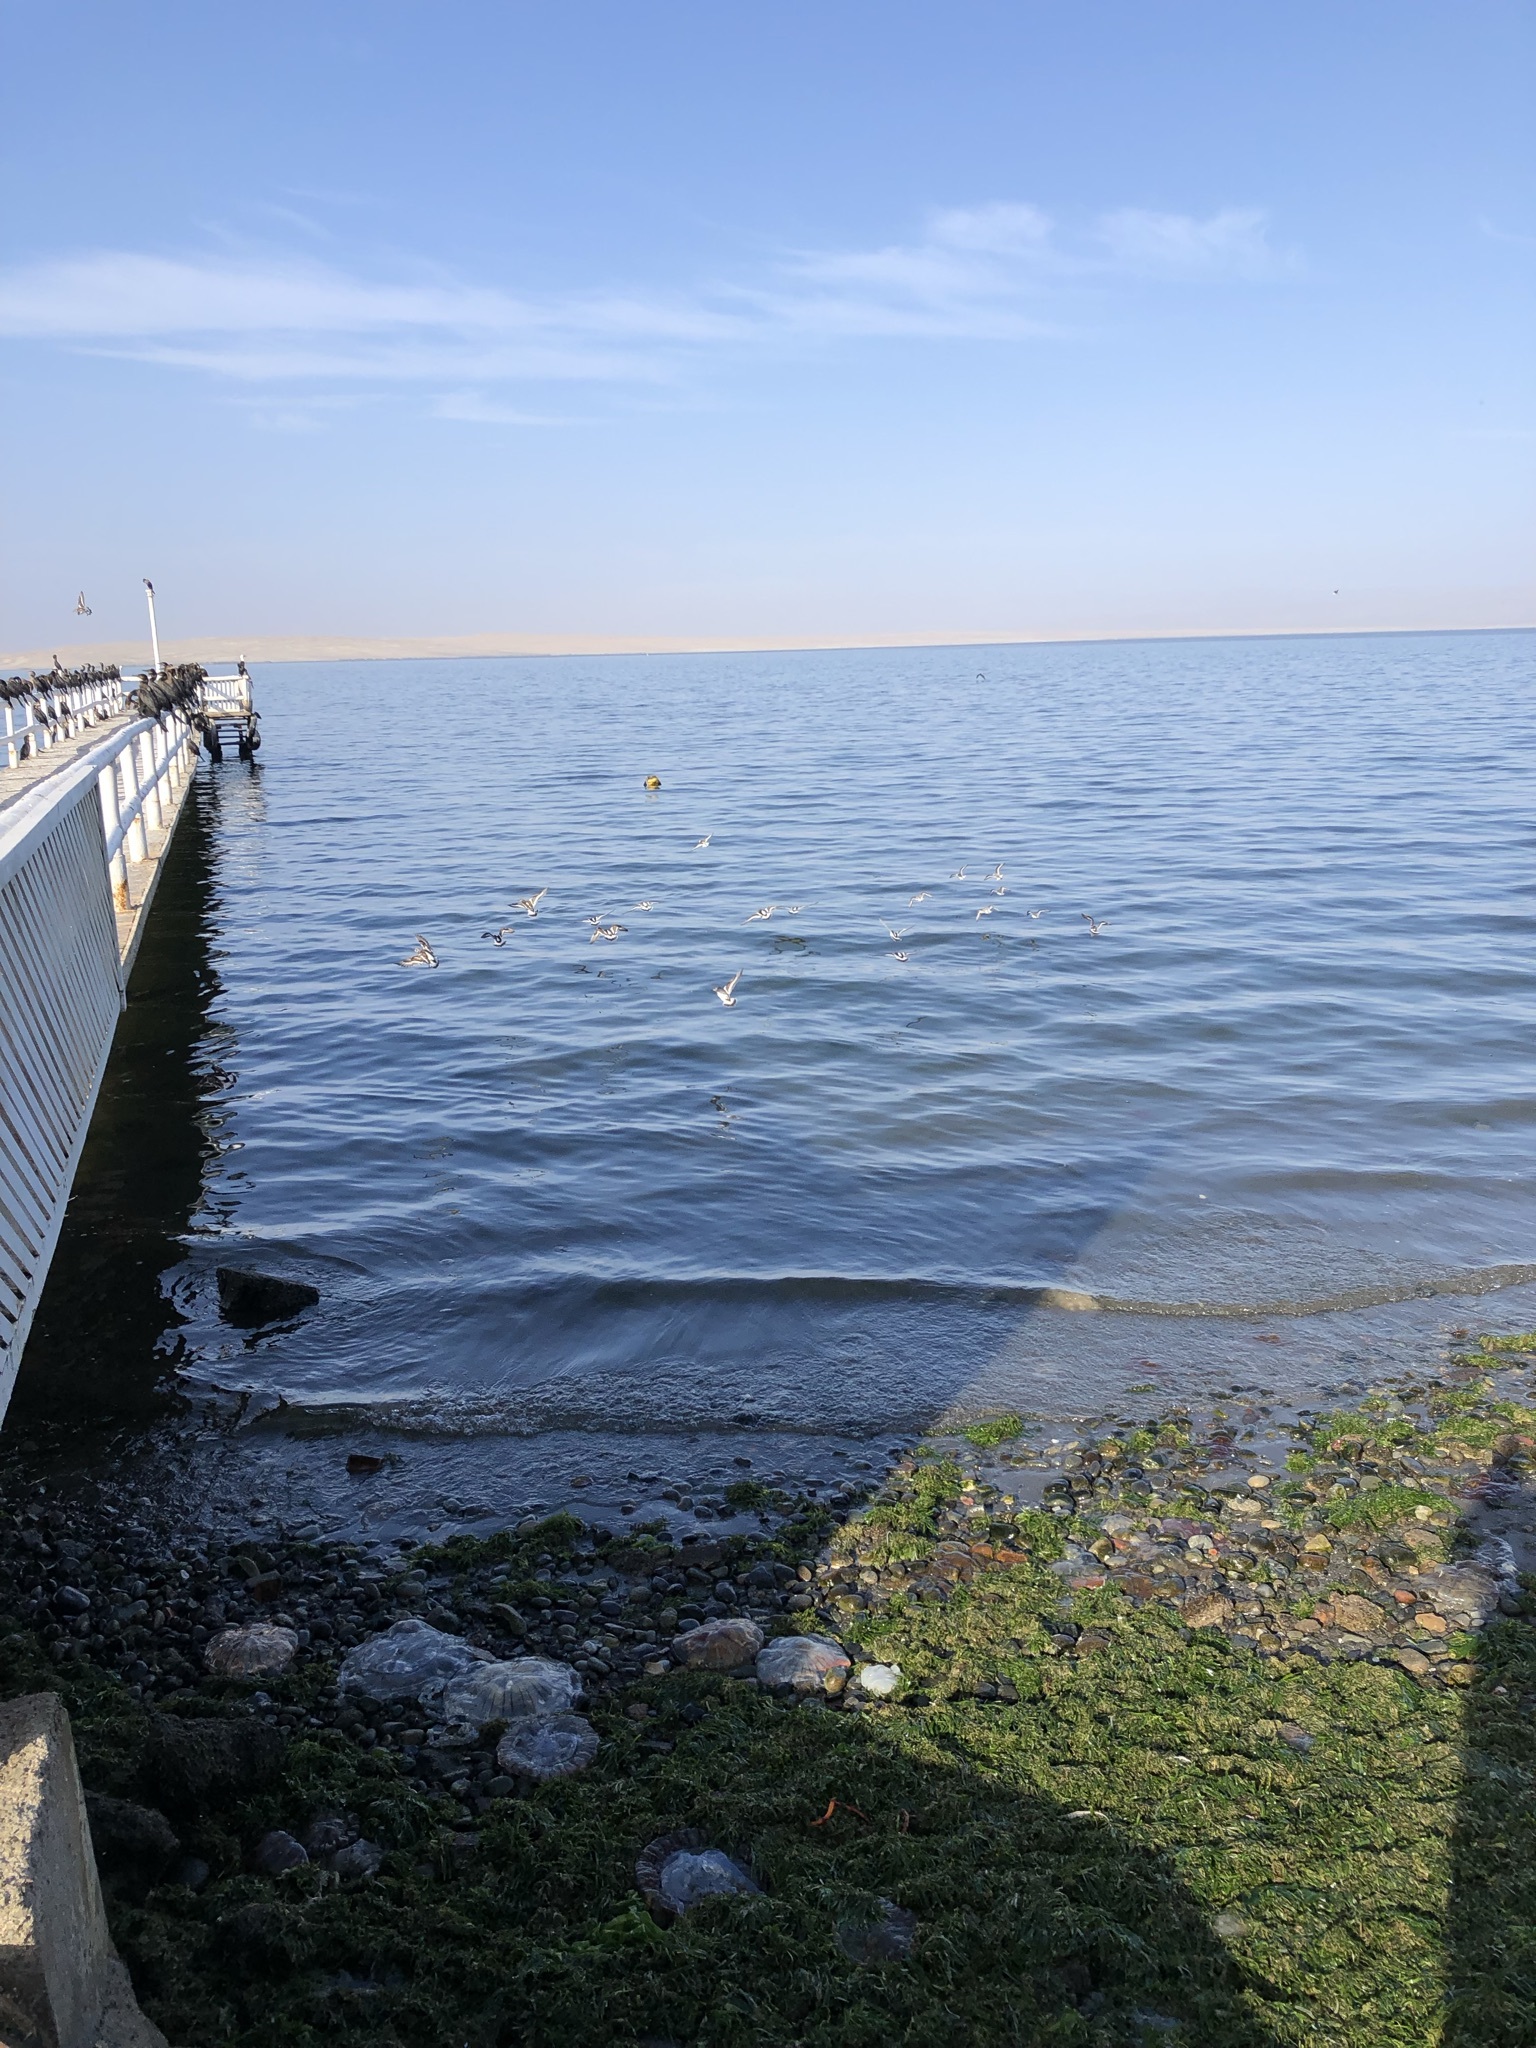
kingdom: Animalia
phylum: Chordata
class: Aves
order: Charadriiformes
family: Scolopacidae
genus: Arenaria
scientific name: Arenaria interpres
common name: Ruddy turnstone
